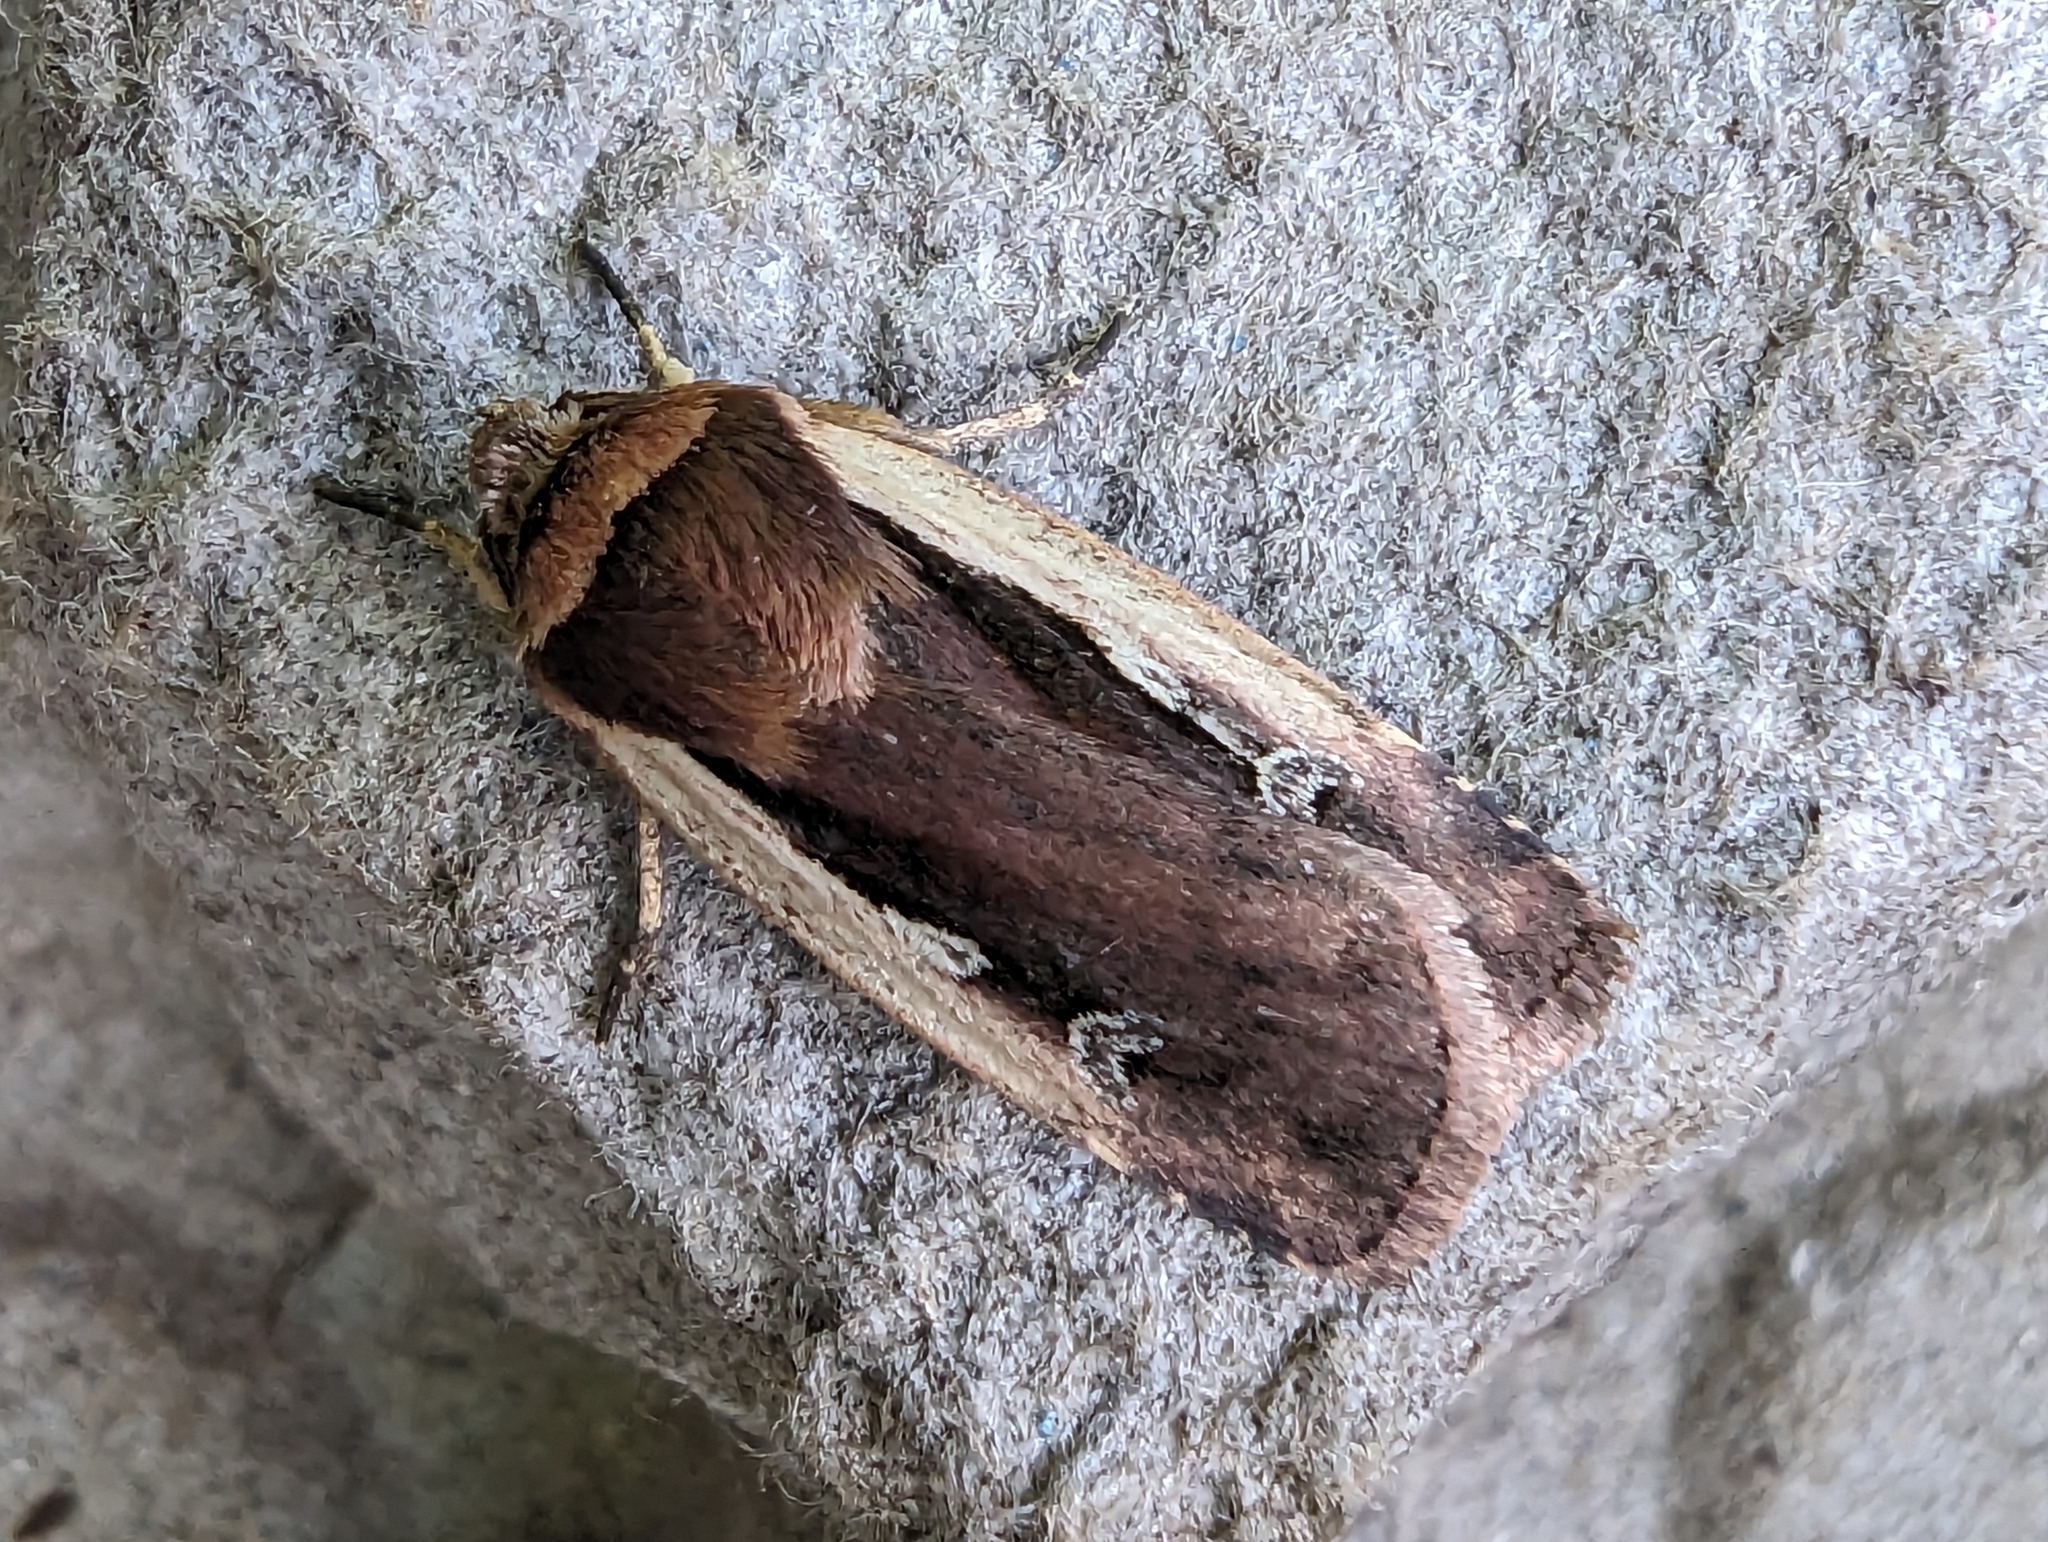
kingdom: Animalia
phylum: Arthropoda
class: Insecta
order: Lepidoptera
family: Noctuidae
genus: Ochropleura
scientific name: Ochropleura plecta
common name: Flame shoulder
